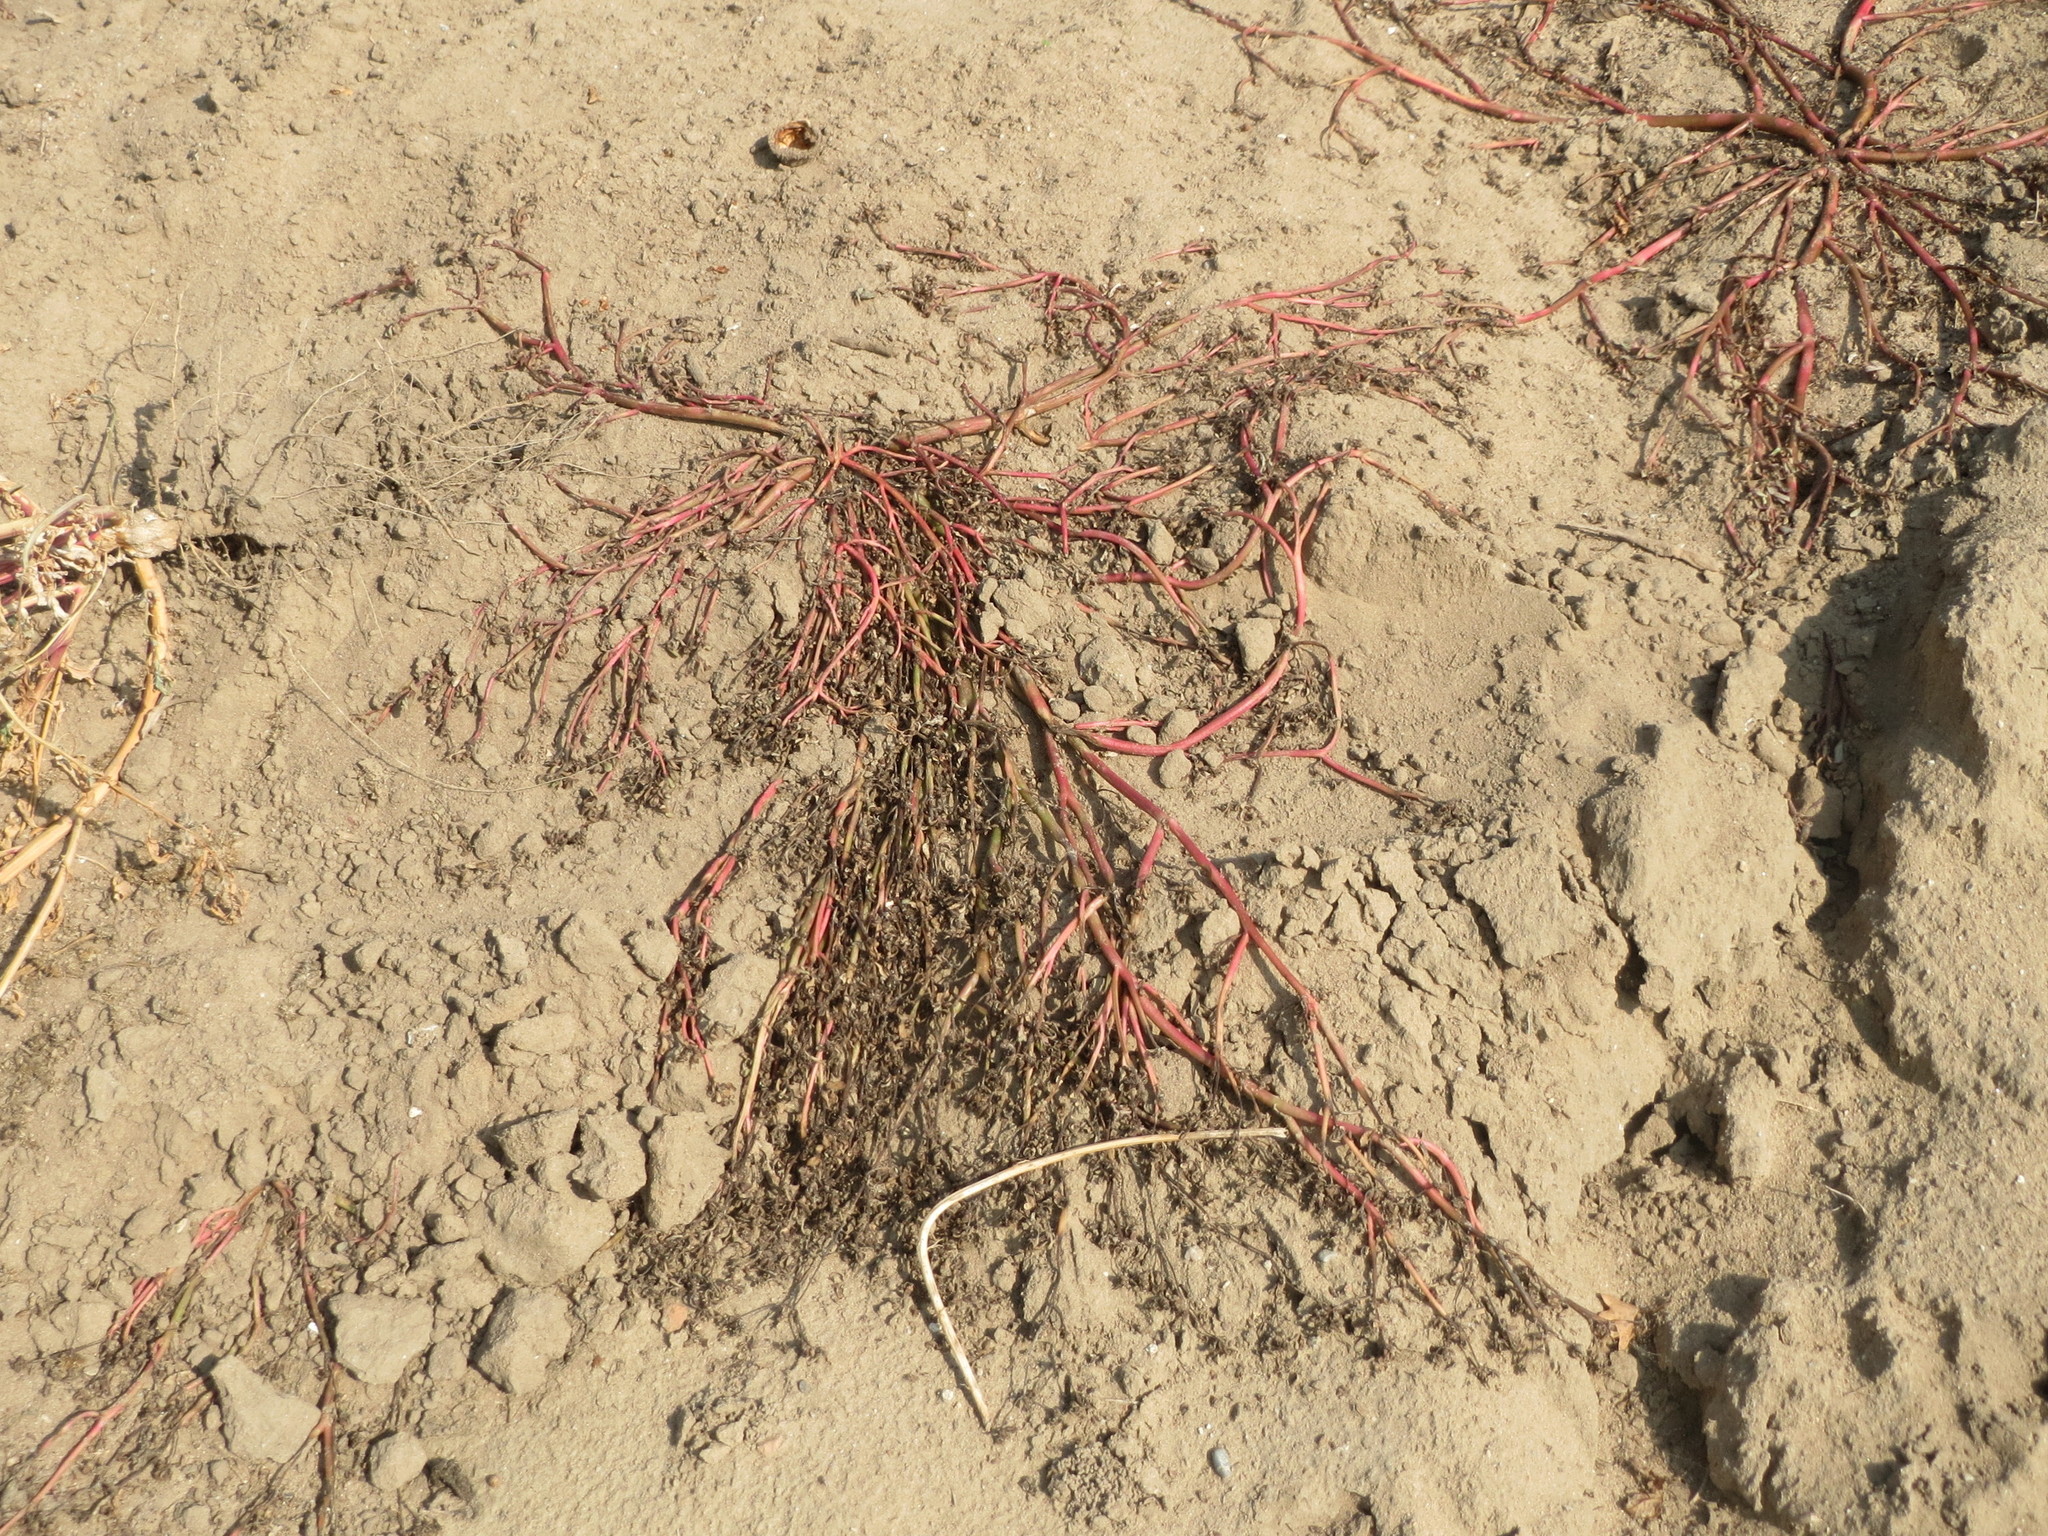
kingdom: Plantae
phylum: Tracheophyta
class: Magnoliopsida
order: Caryophyllales
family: Portulacaceae
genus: Portulaca
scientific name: Portulaca oleracea
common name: Common purslane
